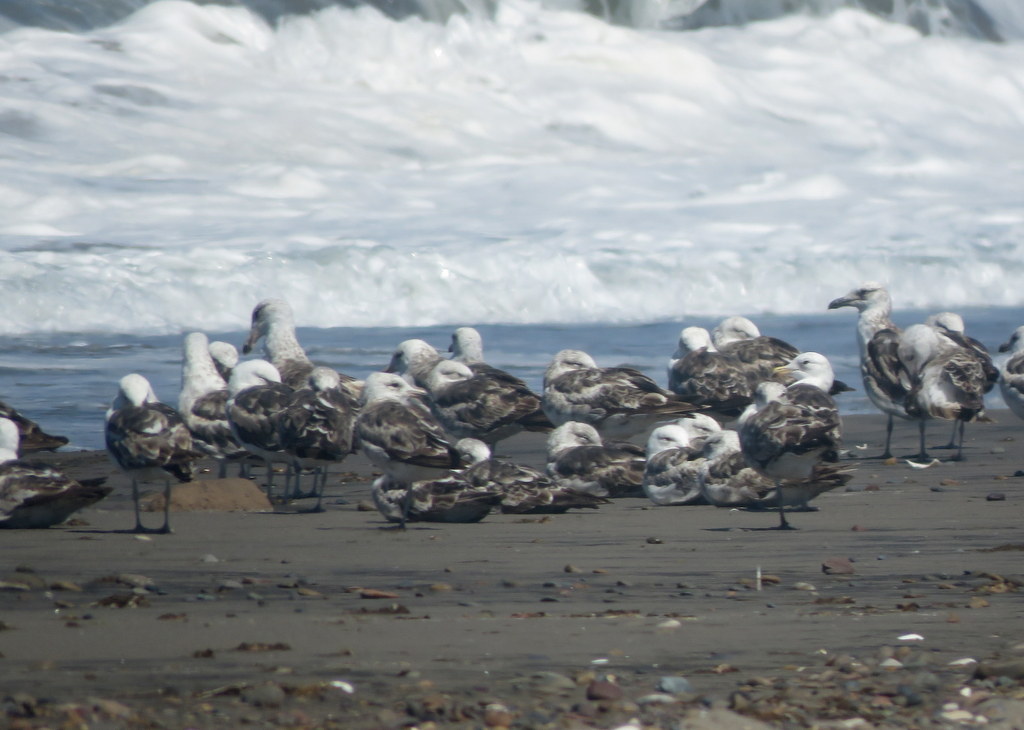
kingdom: Animalia
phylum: Chordata
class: Aves
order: Charadriiformes
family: Laridae
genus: Larus
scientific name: Larus dominicanus
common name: Kelp gull
